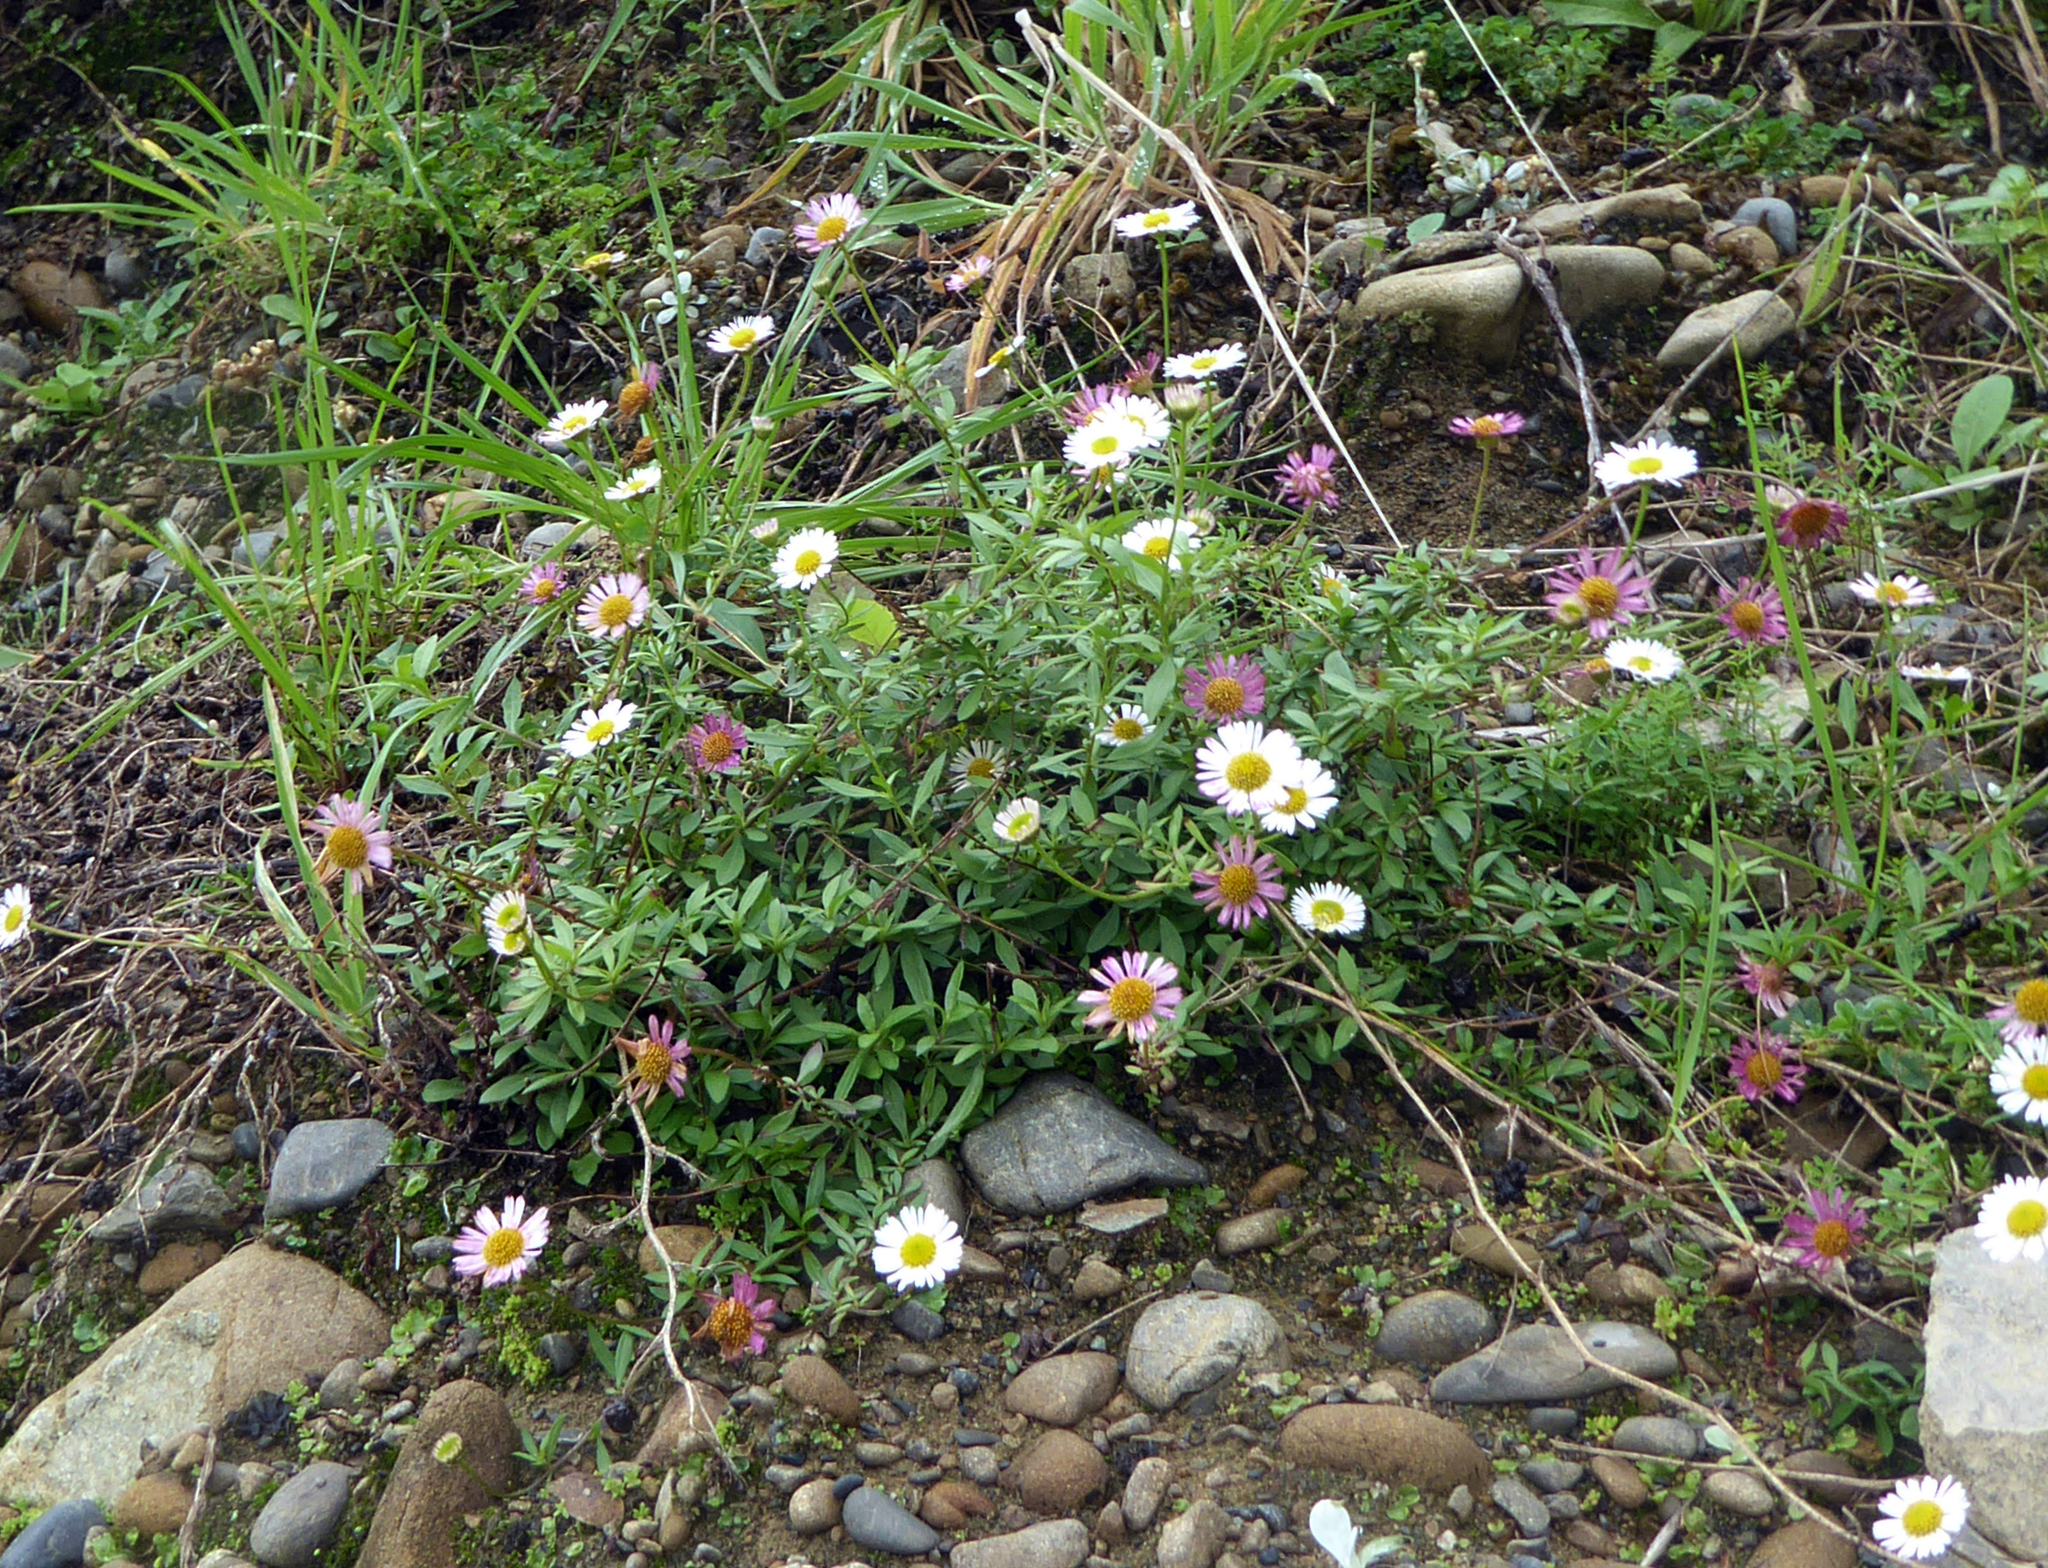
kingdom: Plantae
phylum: Tracheophyta
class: Magnoliopsida
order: Asterales
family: Asteraceae
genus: Erigeron
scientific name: Erigeron karvinskianus
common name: Mexican fleabane
